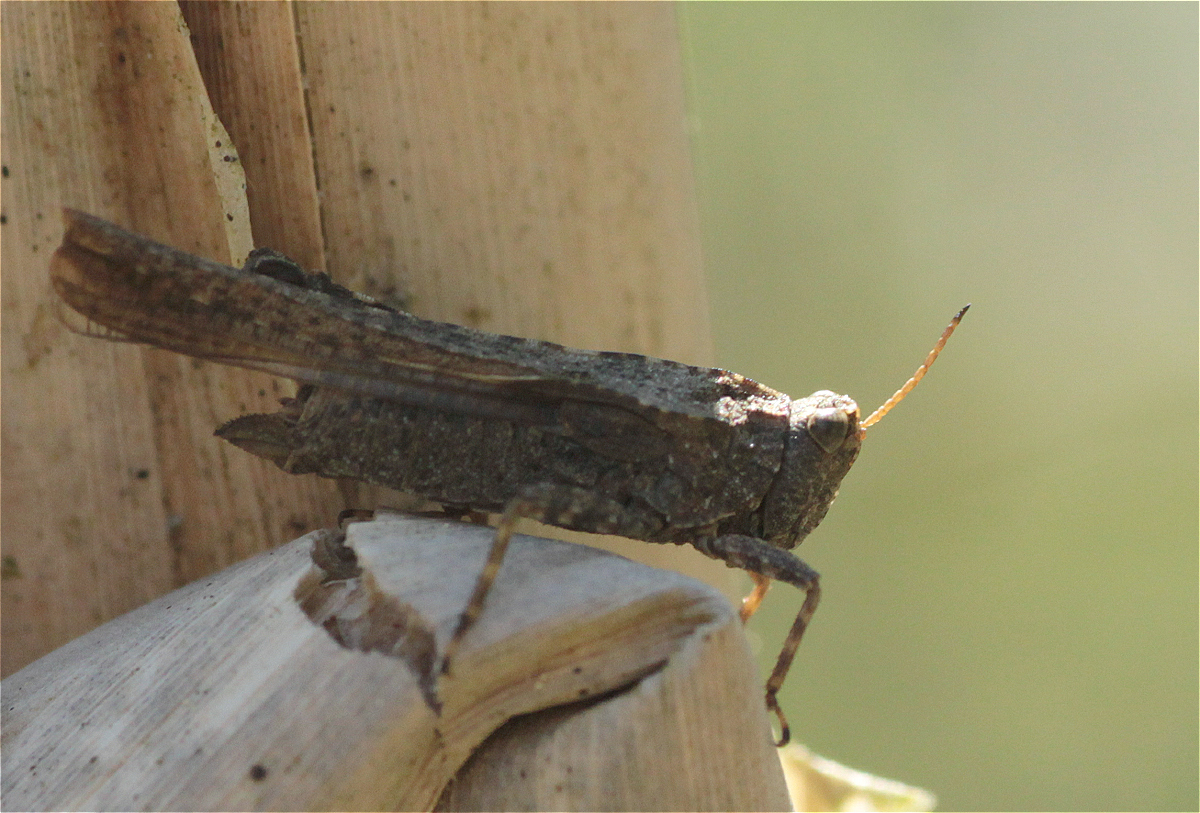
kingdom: Animalia
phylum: Arthropoda
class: Insecta
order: Orthoptera
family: Tetrigidae
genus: Tetrix
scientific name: Tetrix subulata
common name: Slender ground-hopper
